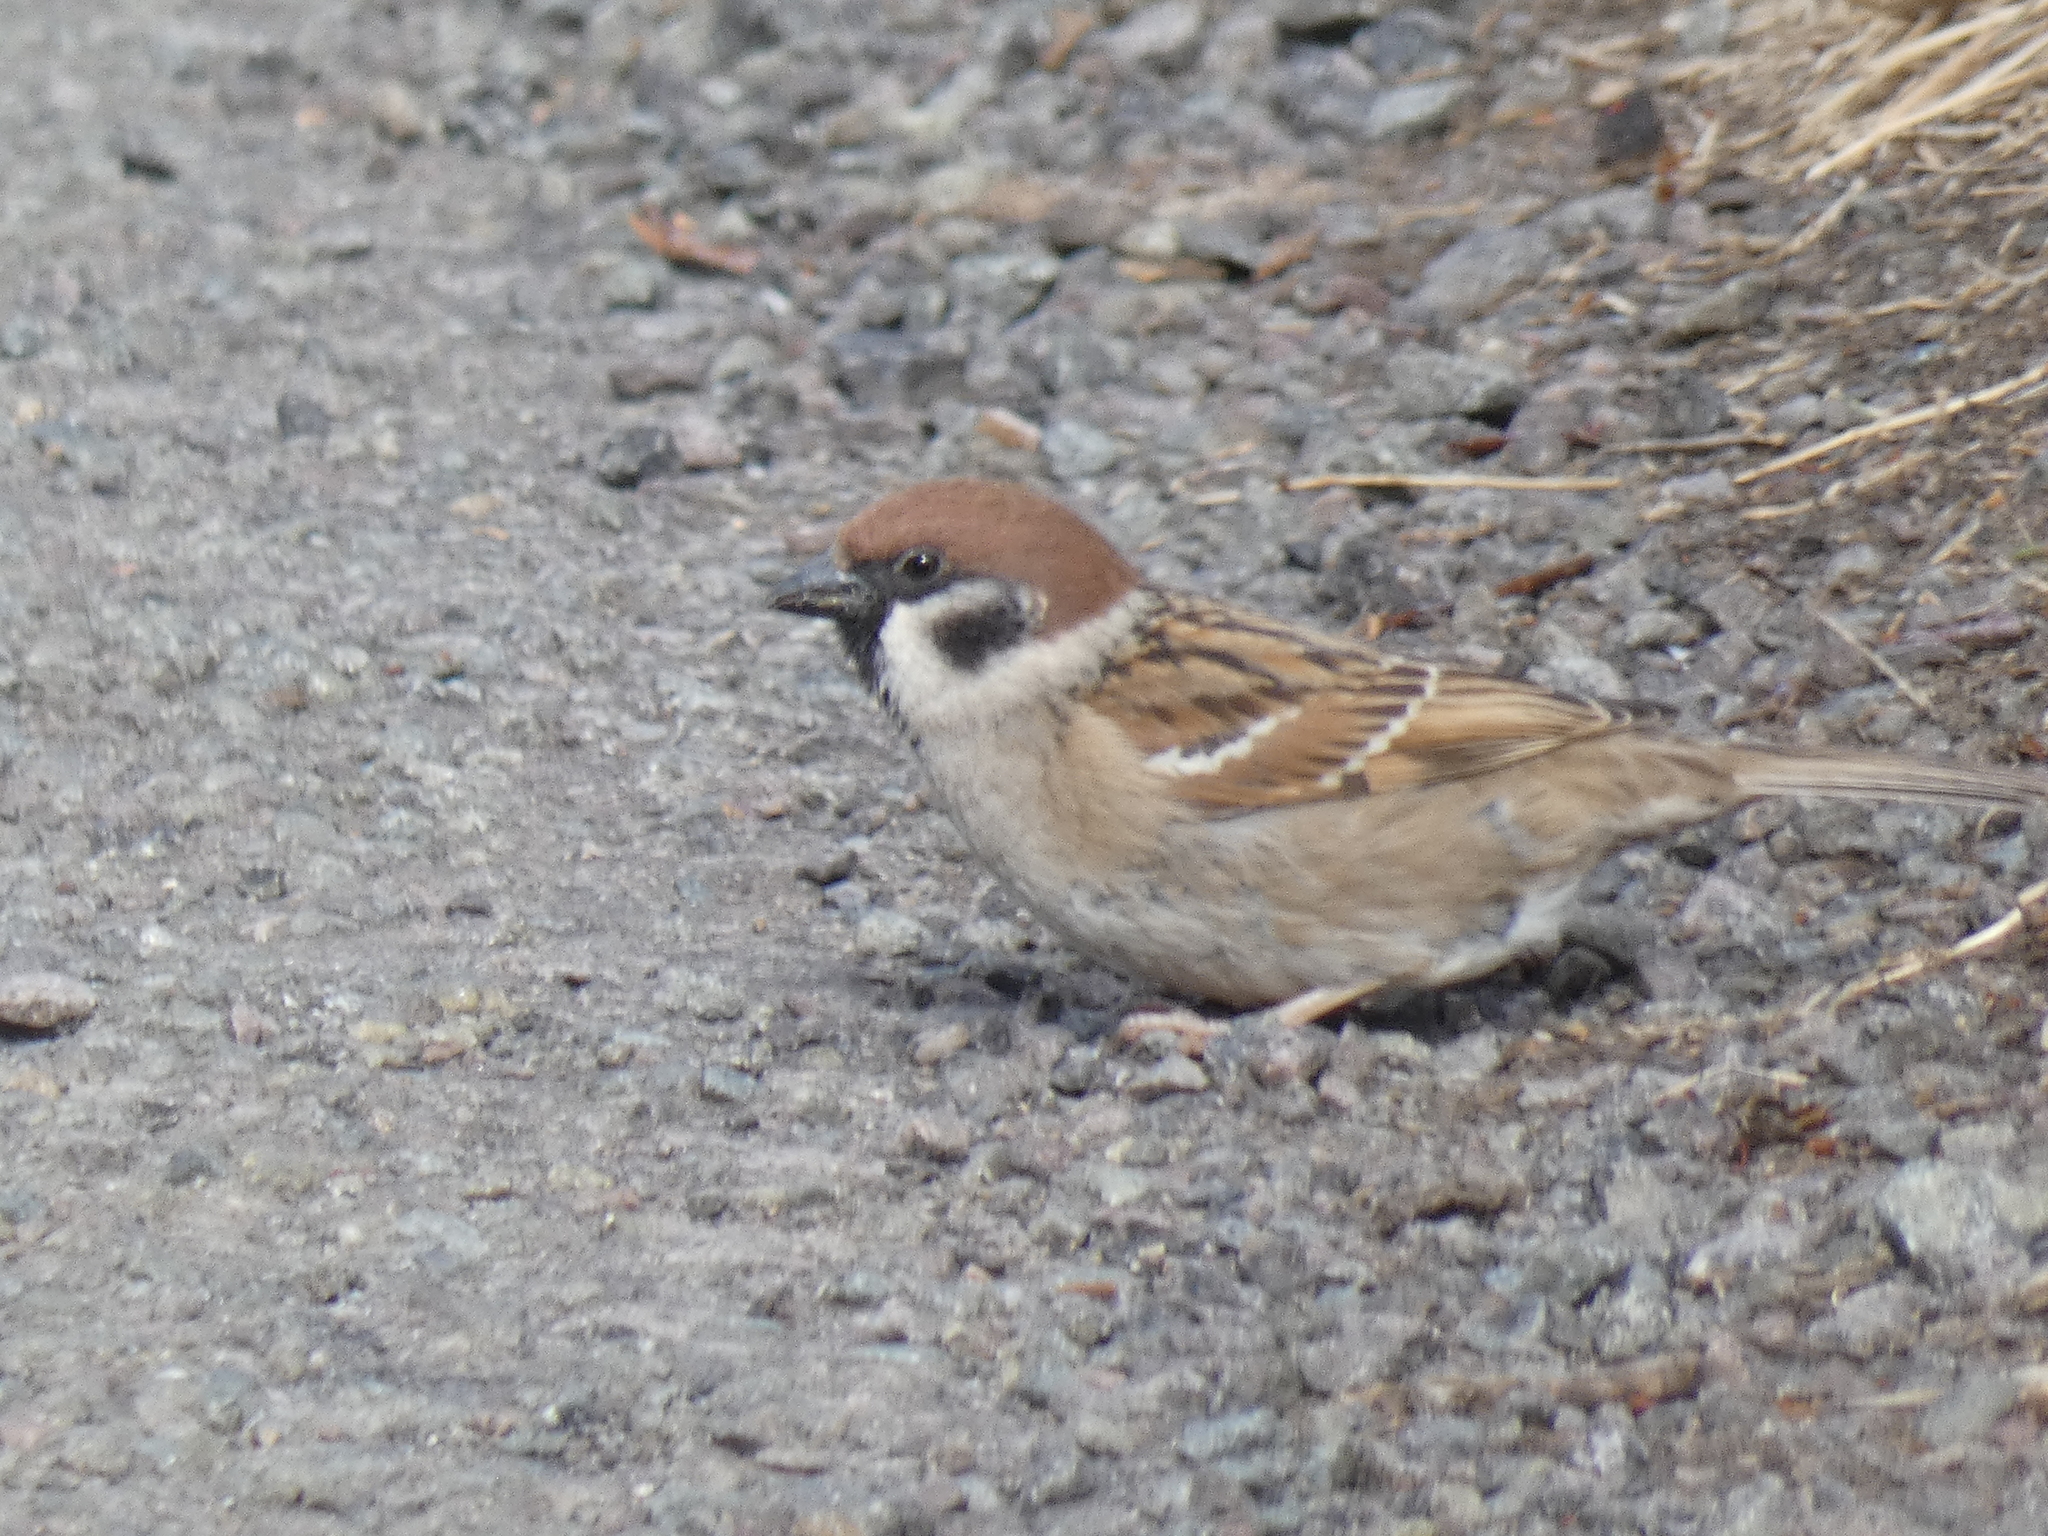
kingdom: Animalia
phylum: Chordata
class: Aves
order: Passeriformes
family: Passeridae
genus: Passer
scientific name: Passer montanus
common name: Eurasian tree sparrow
